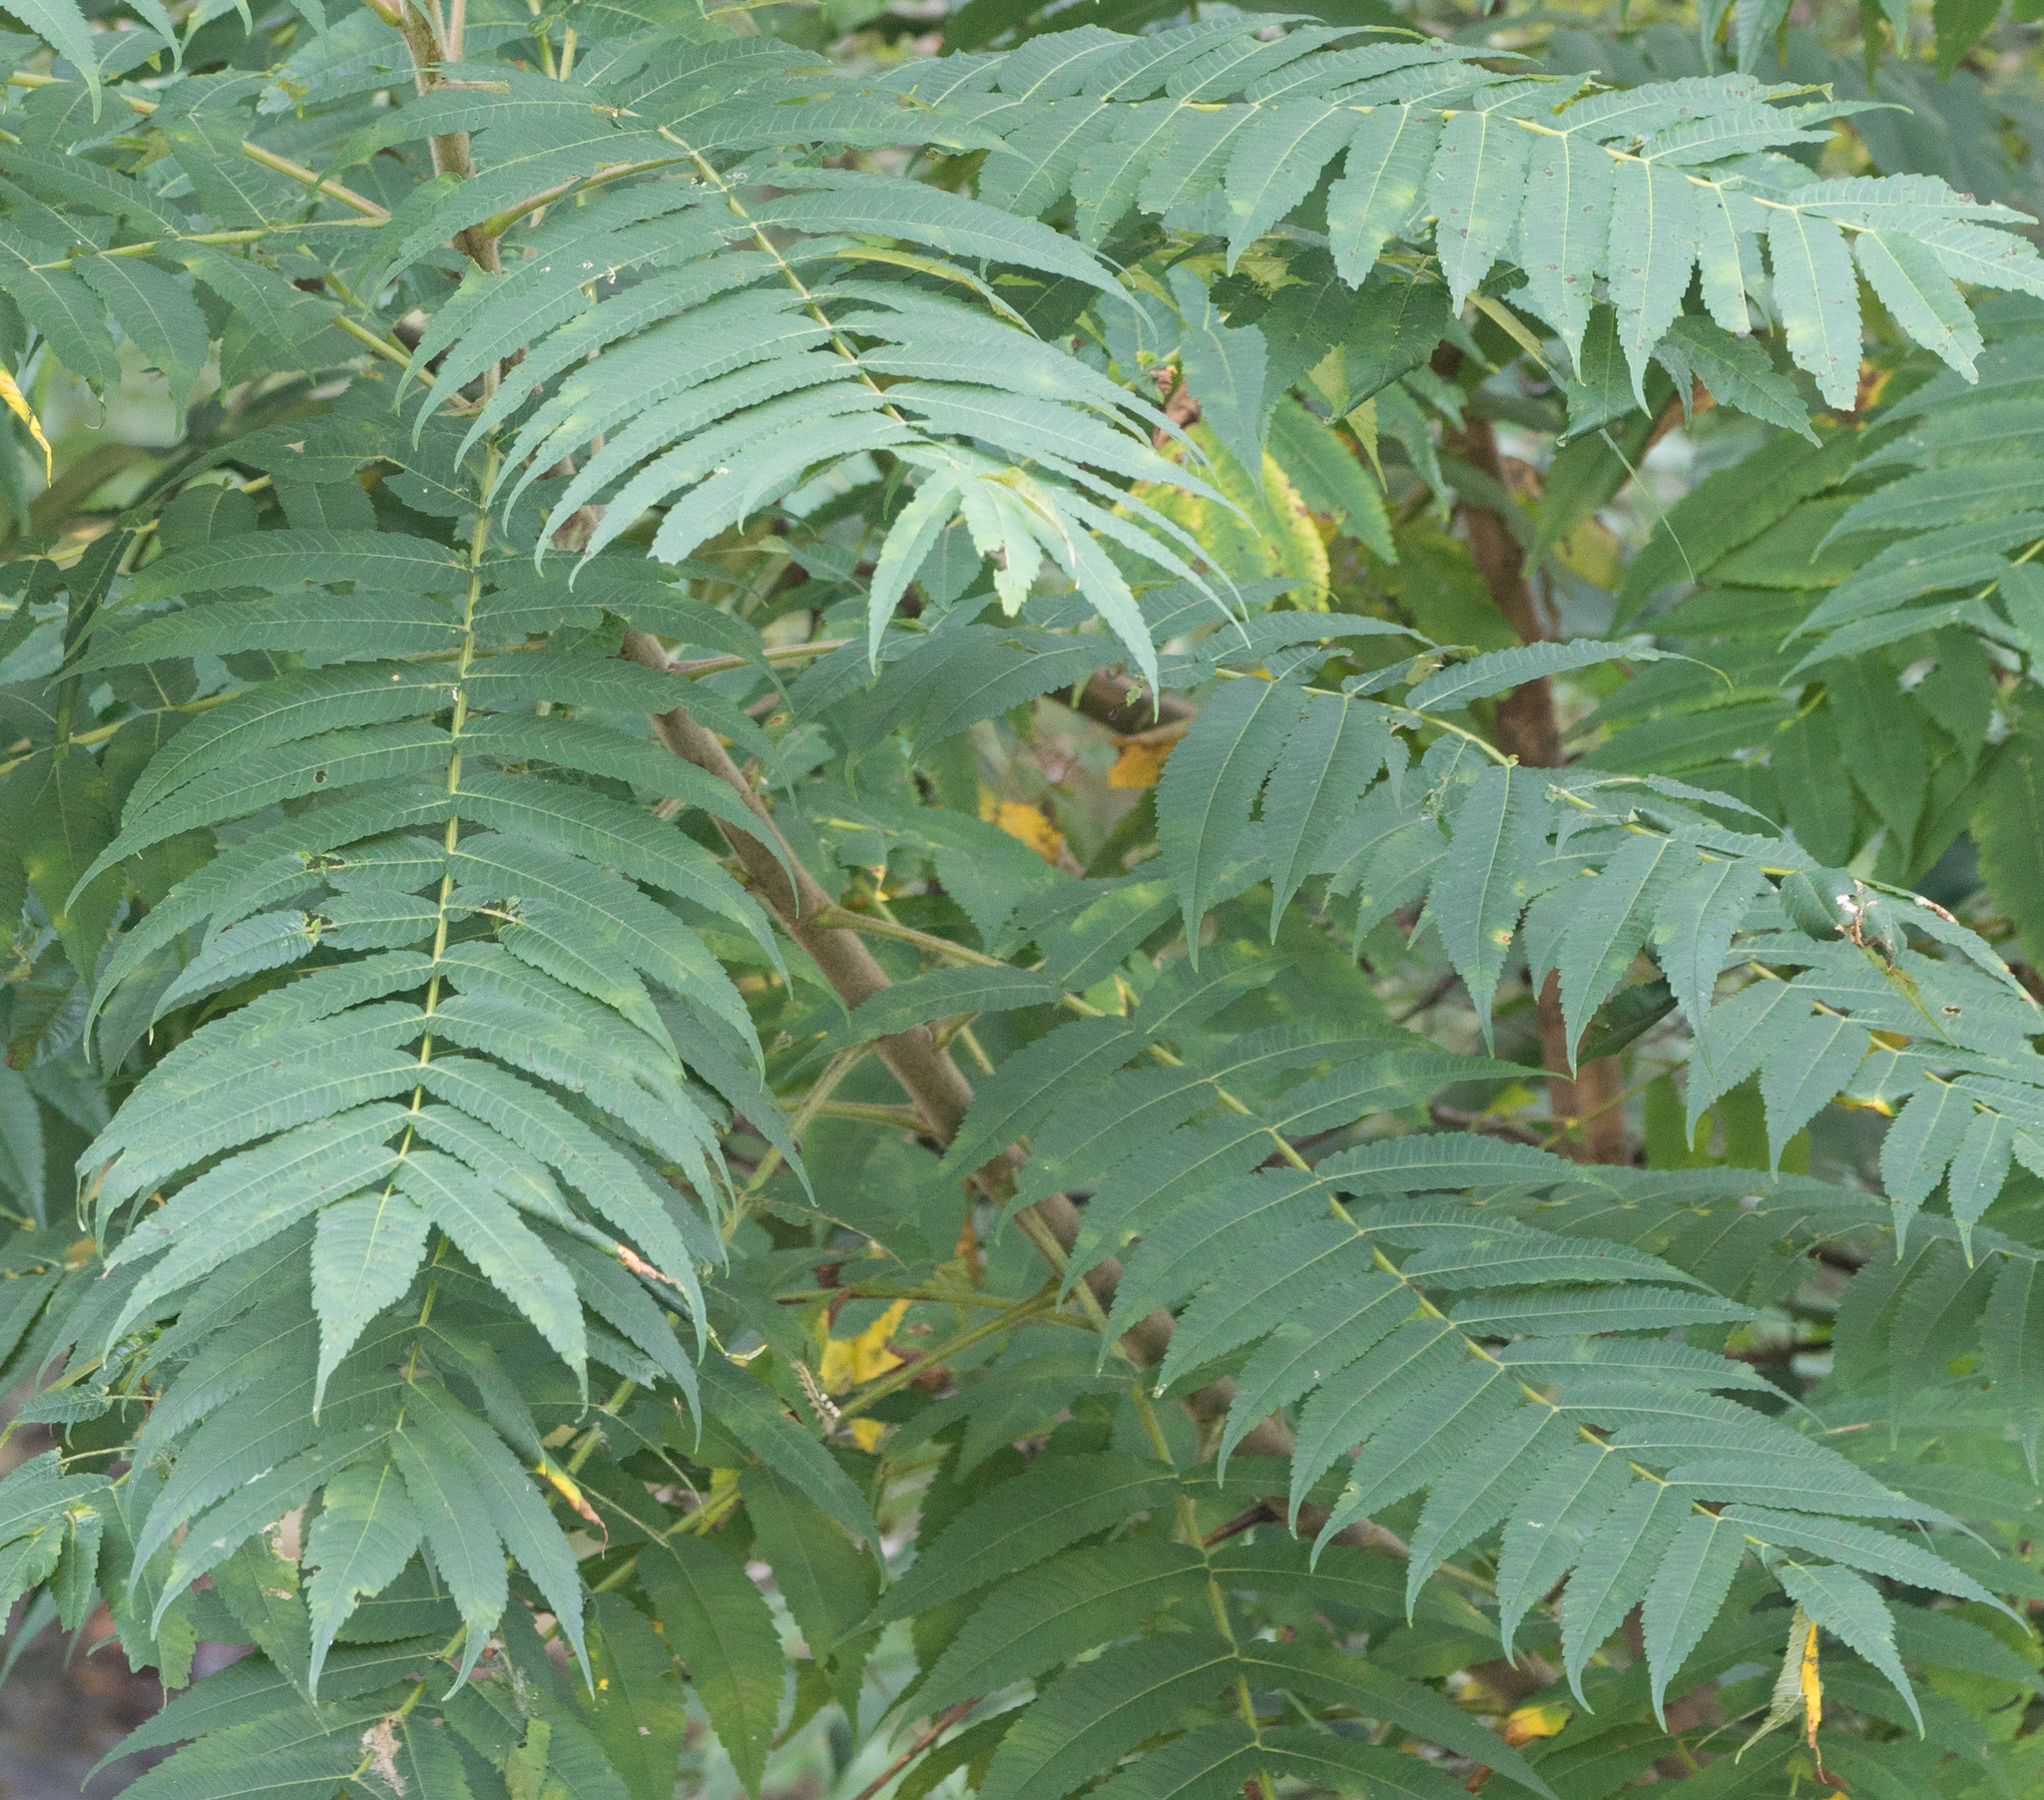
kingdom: Plantae
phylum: Tracheophyta
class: Magnoliopsida
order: Sapindales
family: Anacardiaceae
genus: Rhus
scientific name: Rhus typhina
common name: Staghorn sumac
